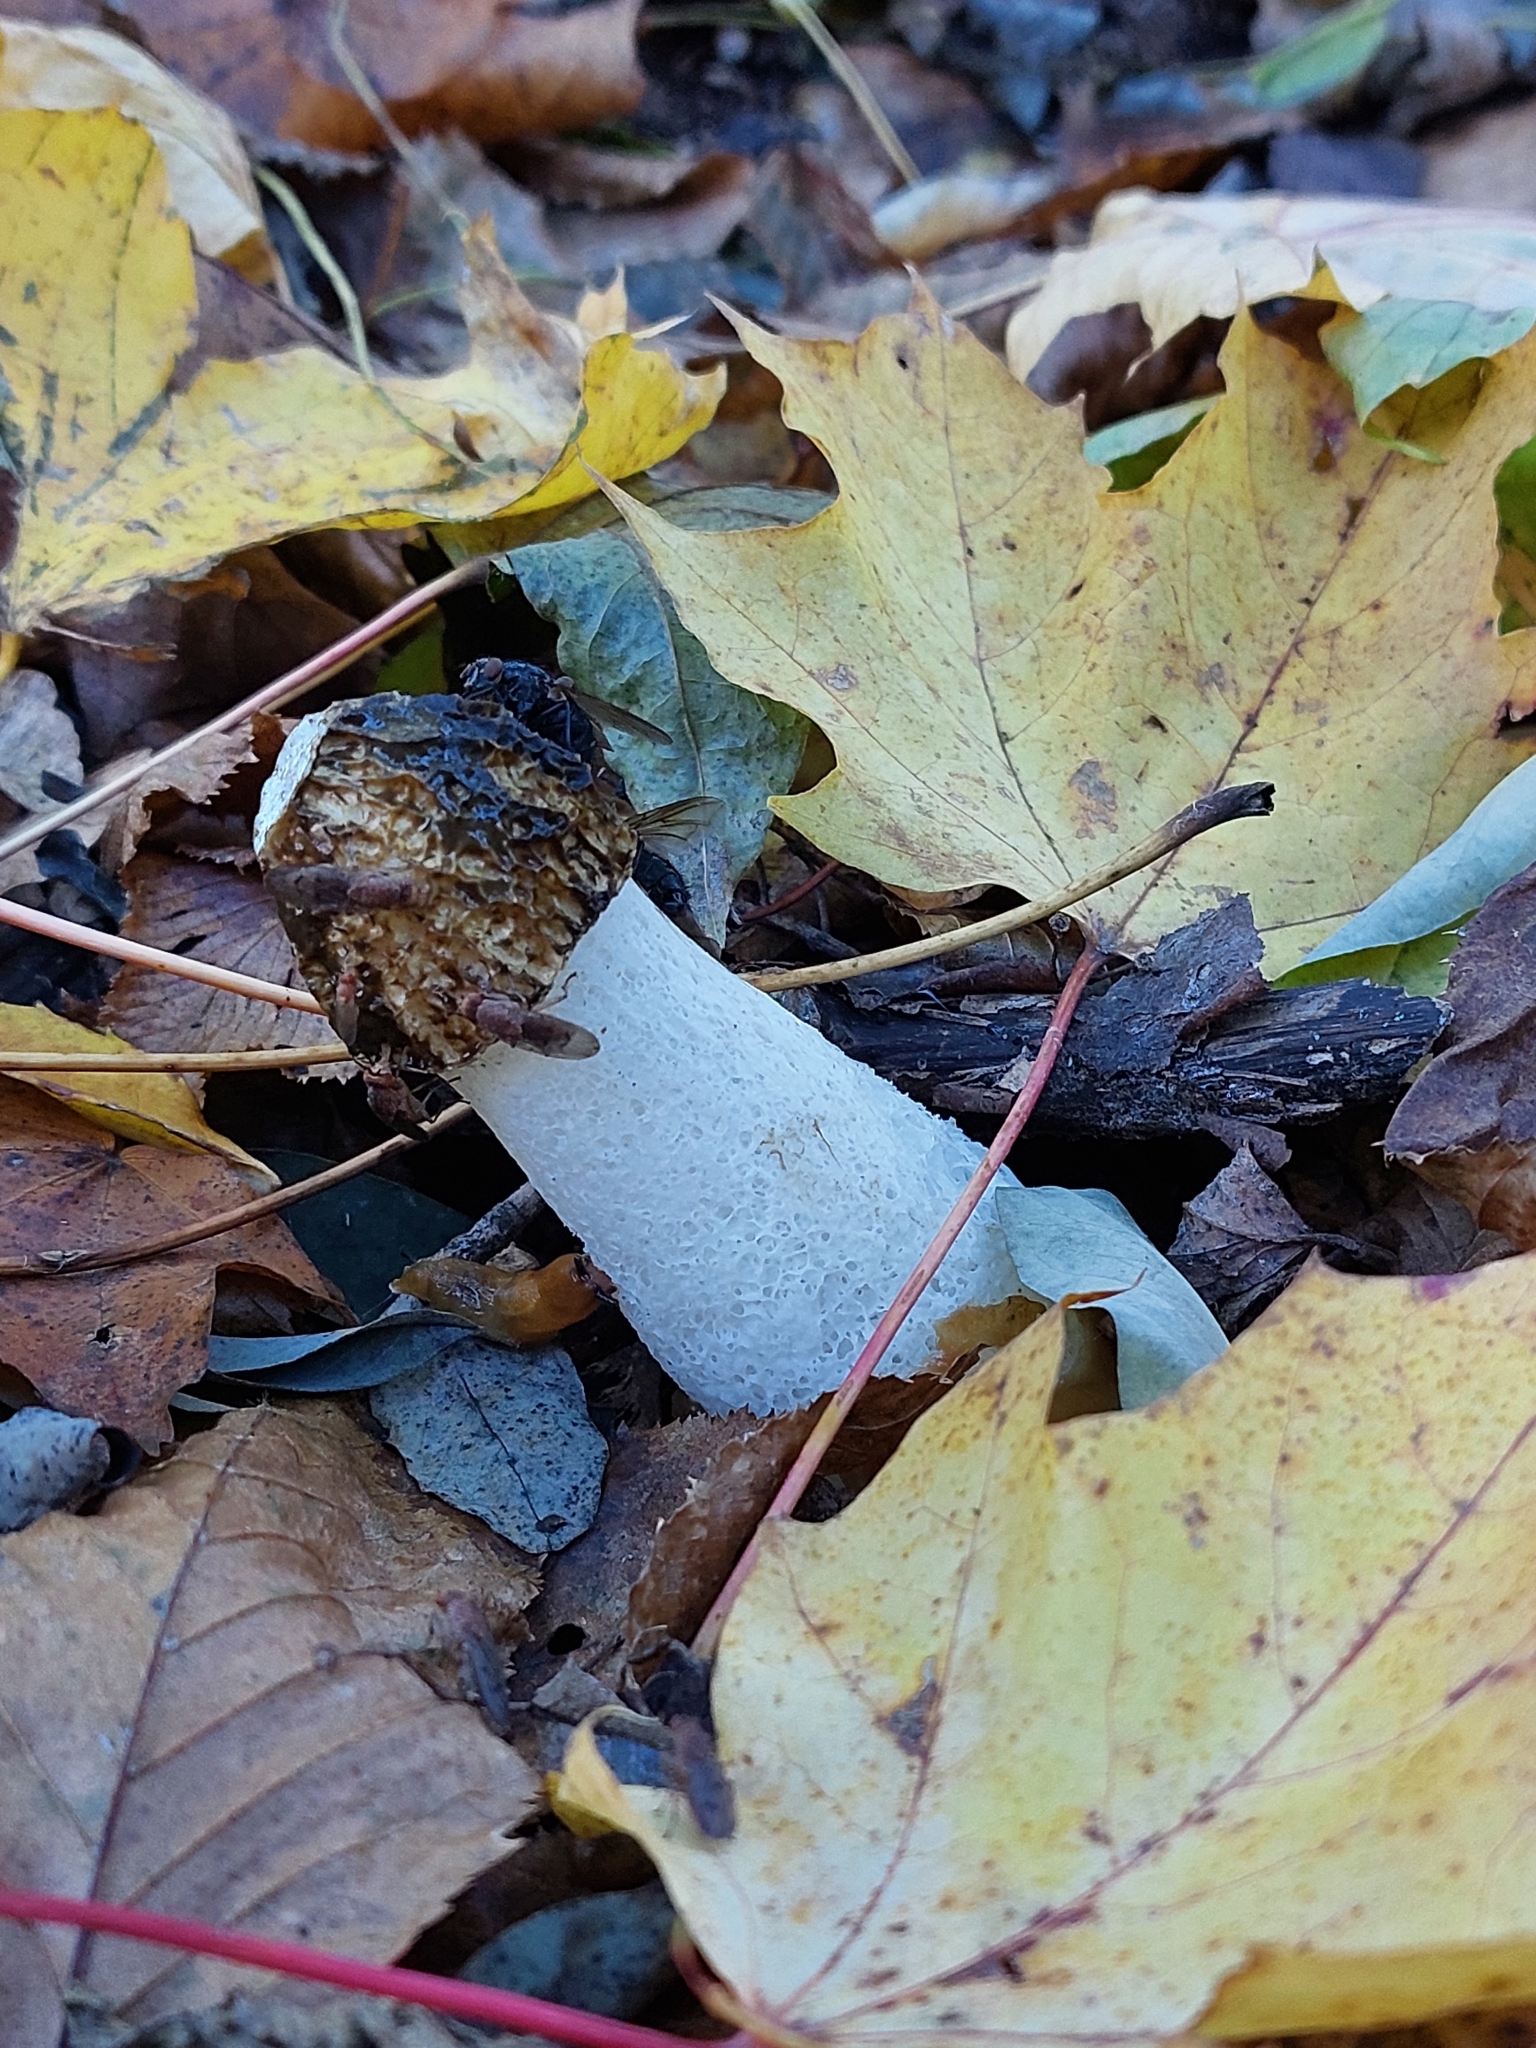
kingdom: Fungi
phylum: Basidiomycota
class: Agaricomycetes
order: Phallales
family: Phallaceae
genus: Phallus
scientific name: Phallus impudicus
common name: Common stinkhorn
